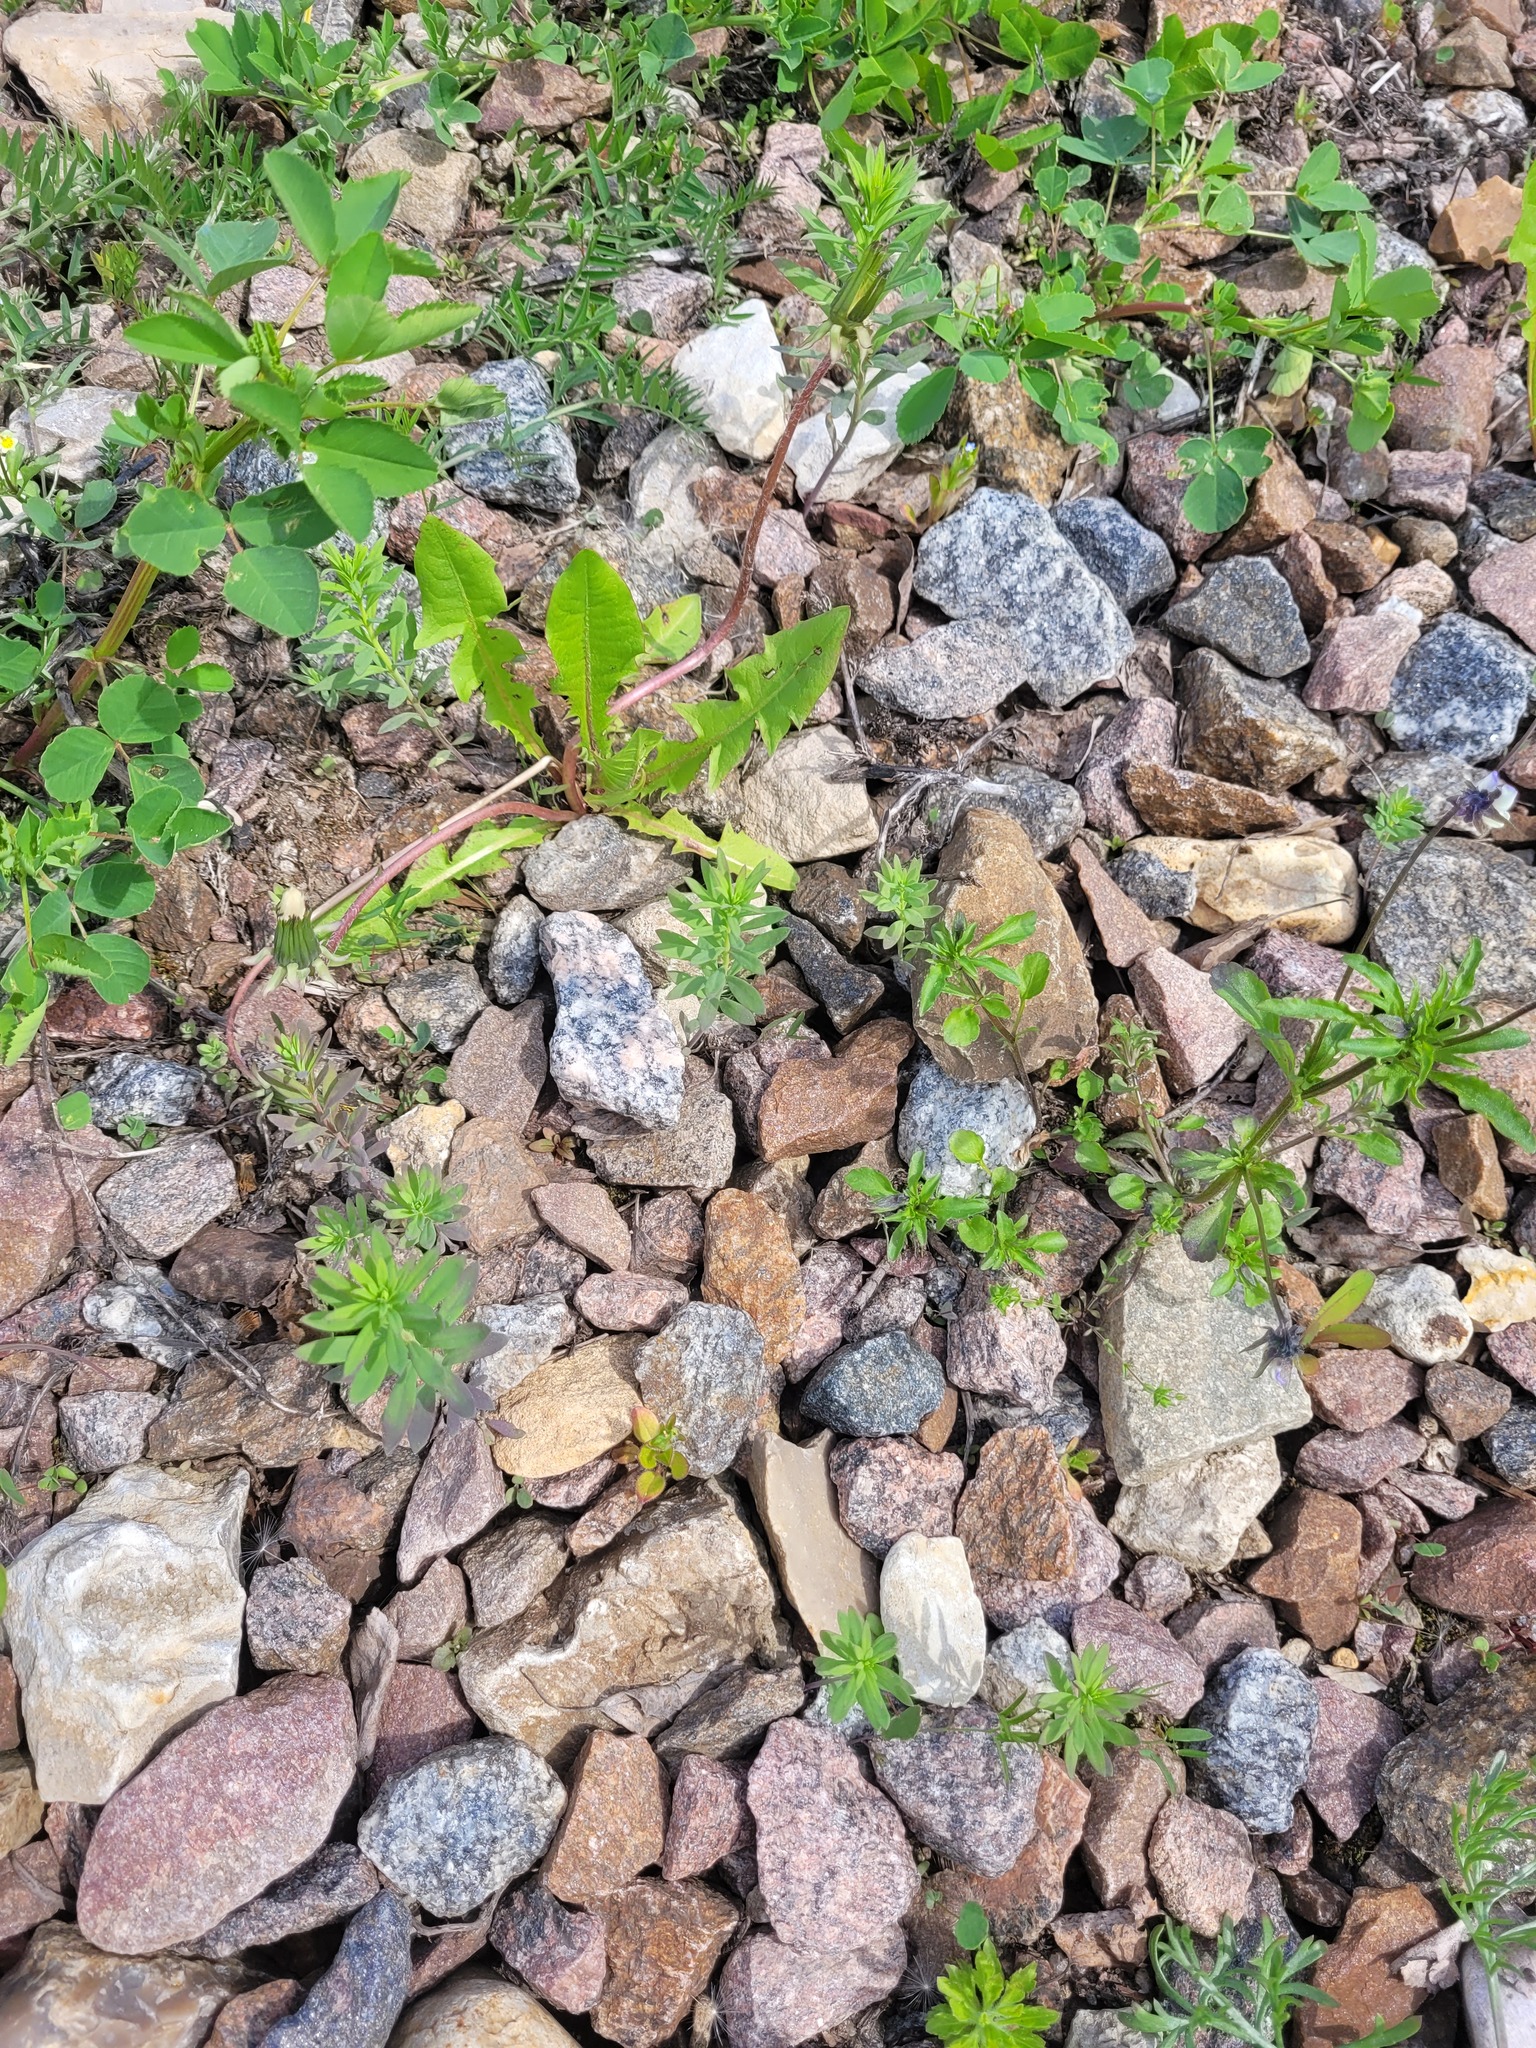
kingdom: Plantae
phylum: Tracheophyta
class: Magnoliopsida
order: Lamiales
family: Plantaginaceae
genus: Linaria
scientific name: Linaria vulgaris
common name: Butter and eggs
